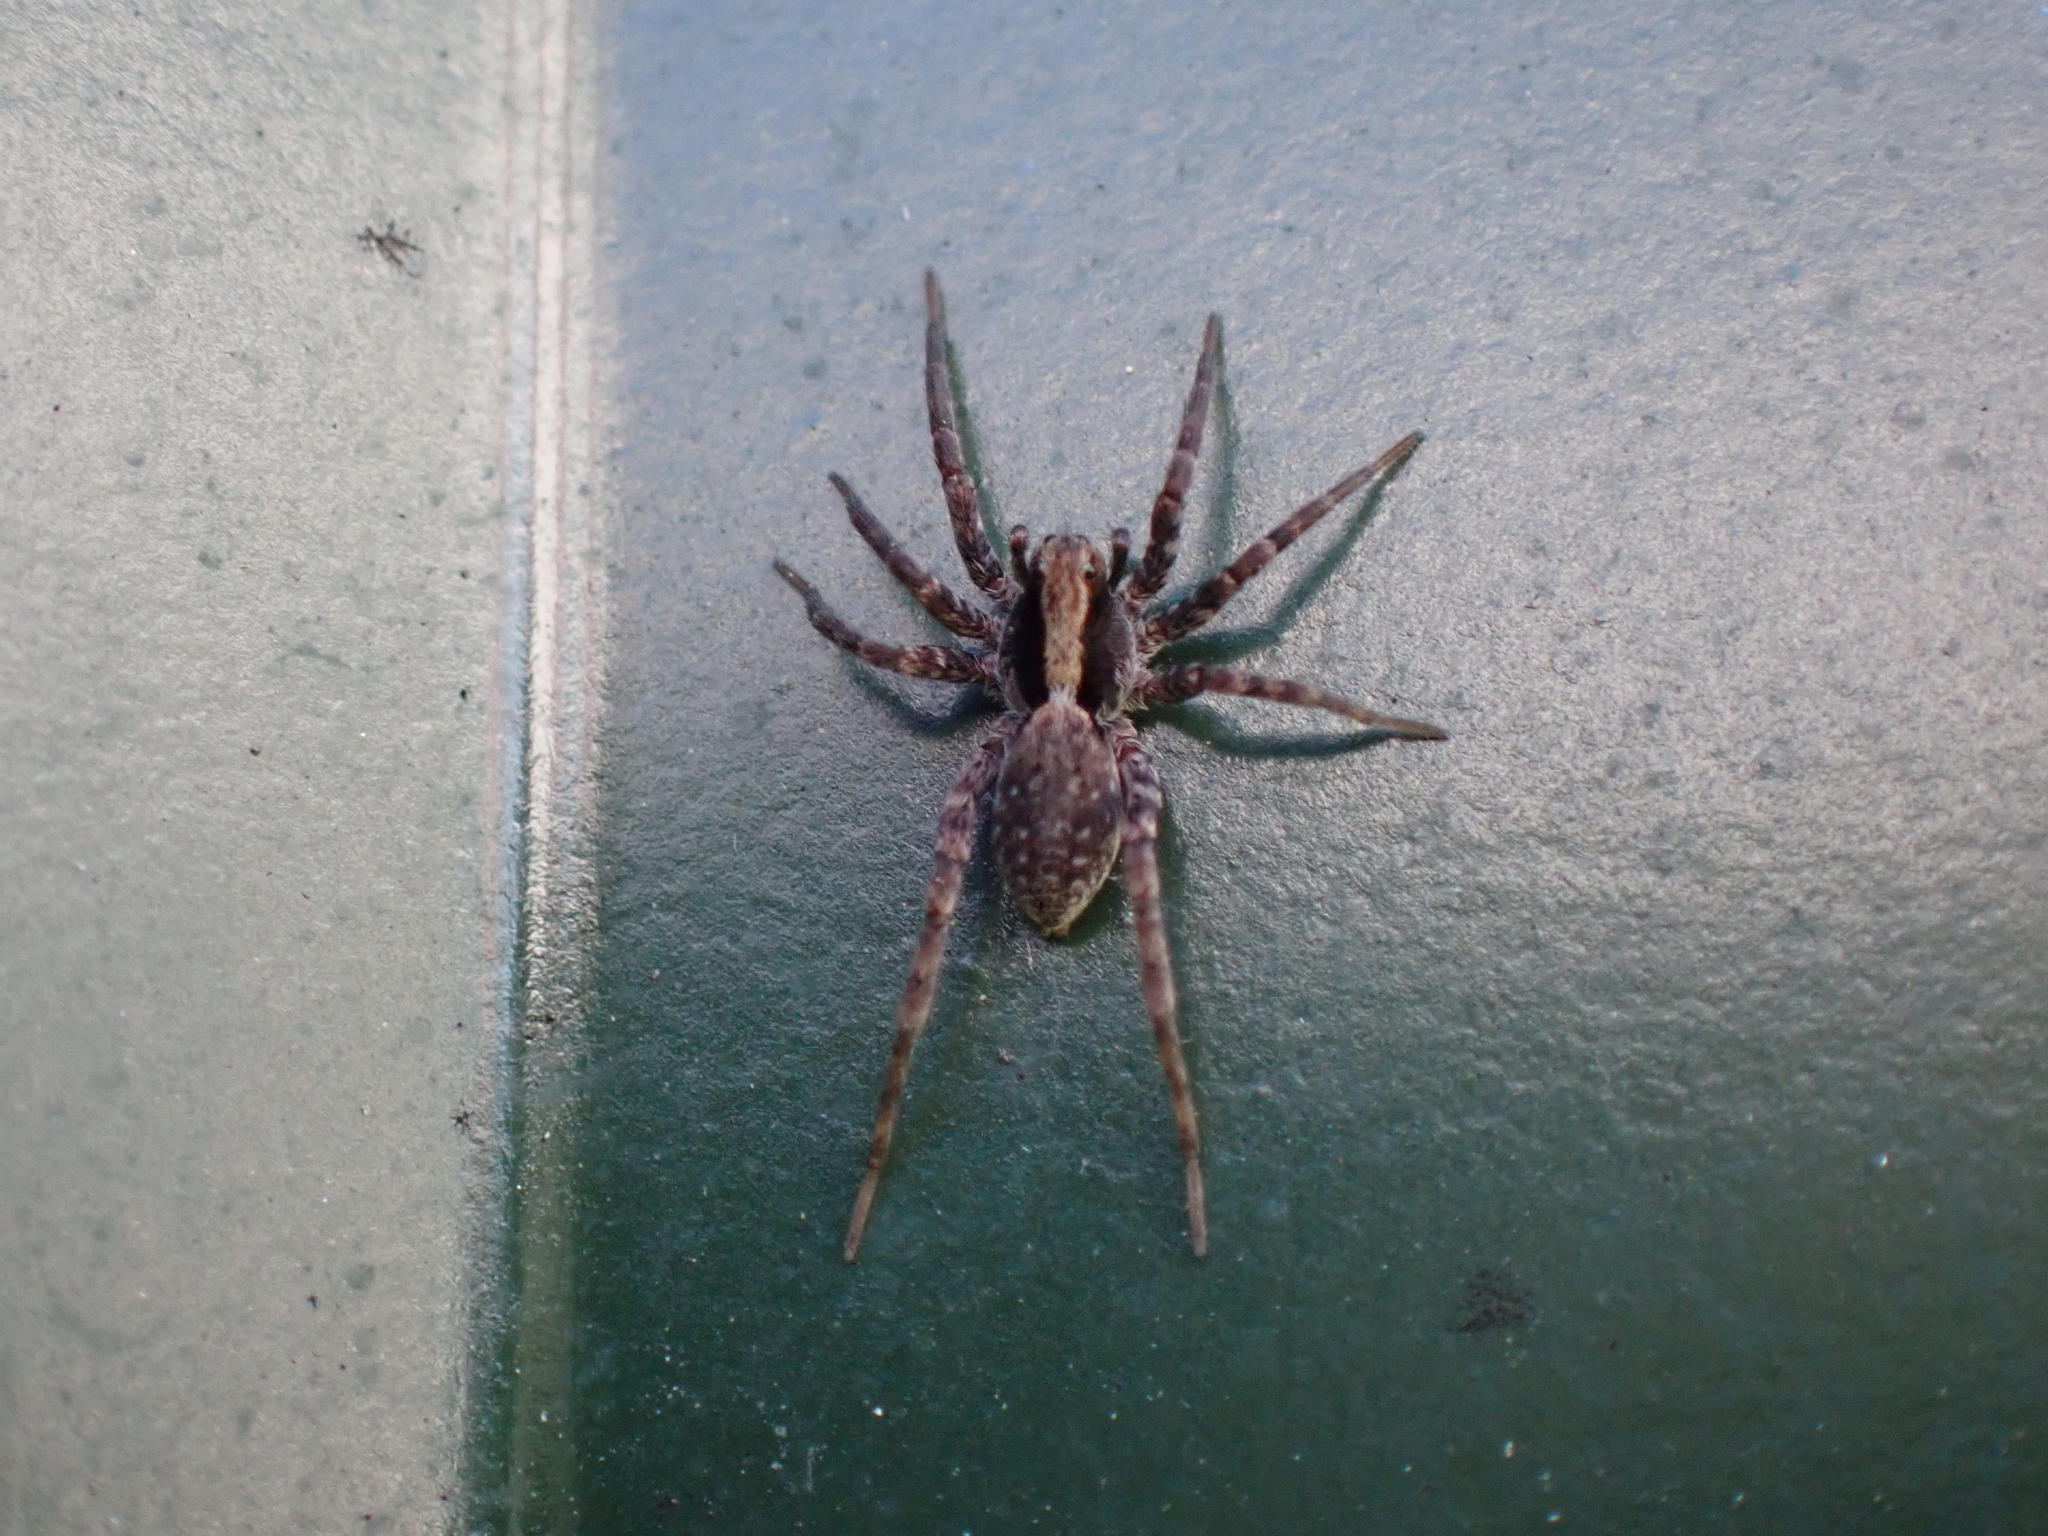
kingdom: Animalia
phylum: Arthropoda
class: Arachnida
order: Araneae
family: Lycosidae
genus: Xerolycosa
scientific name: Xerolycosa nemoralis
